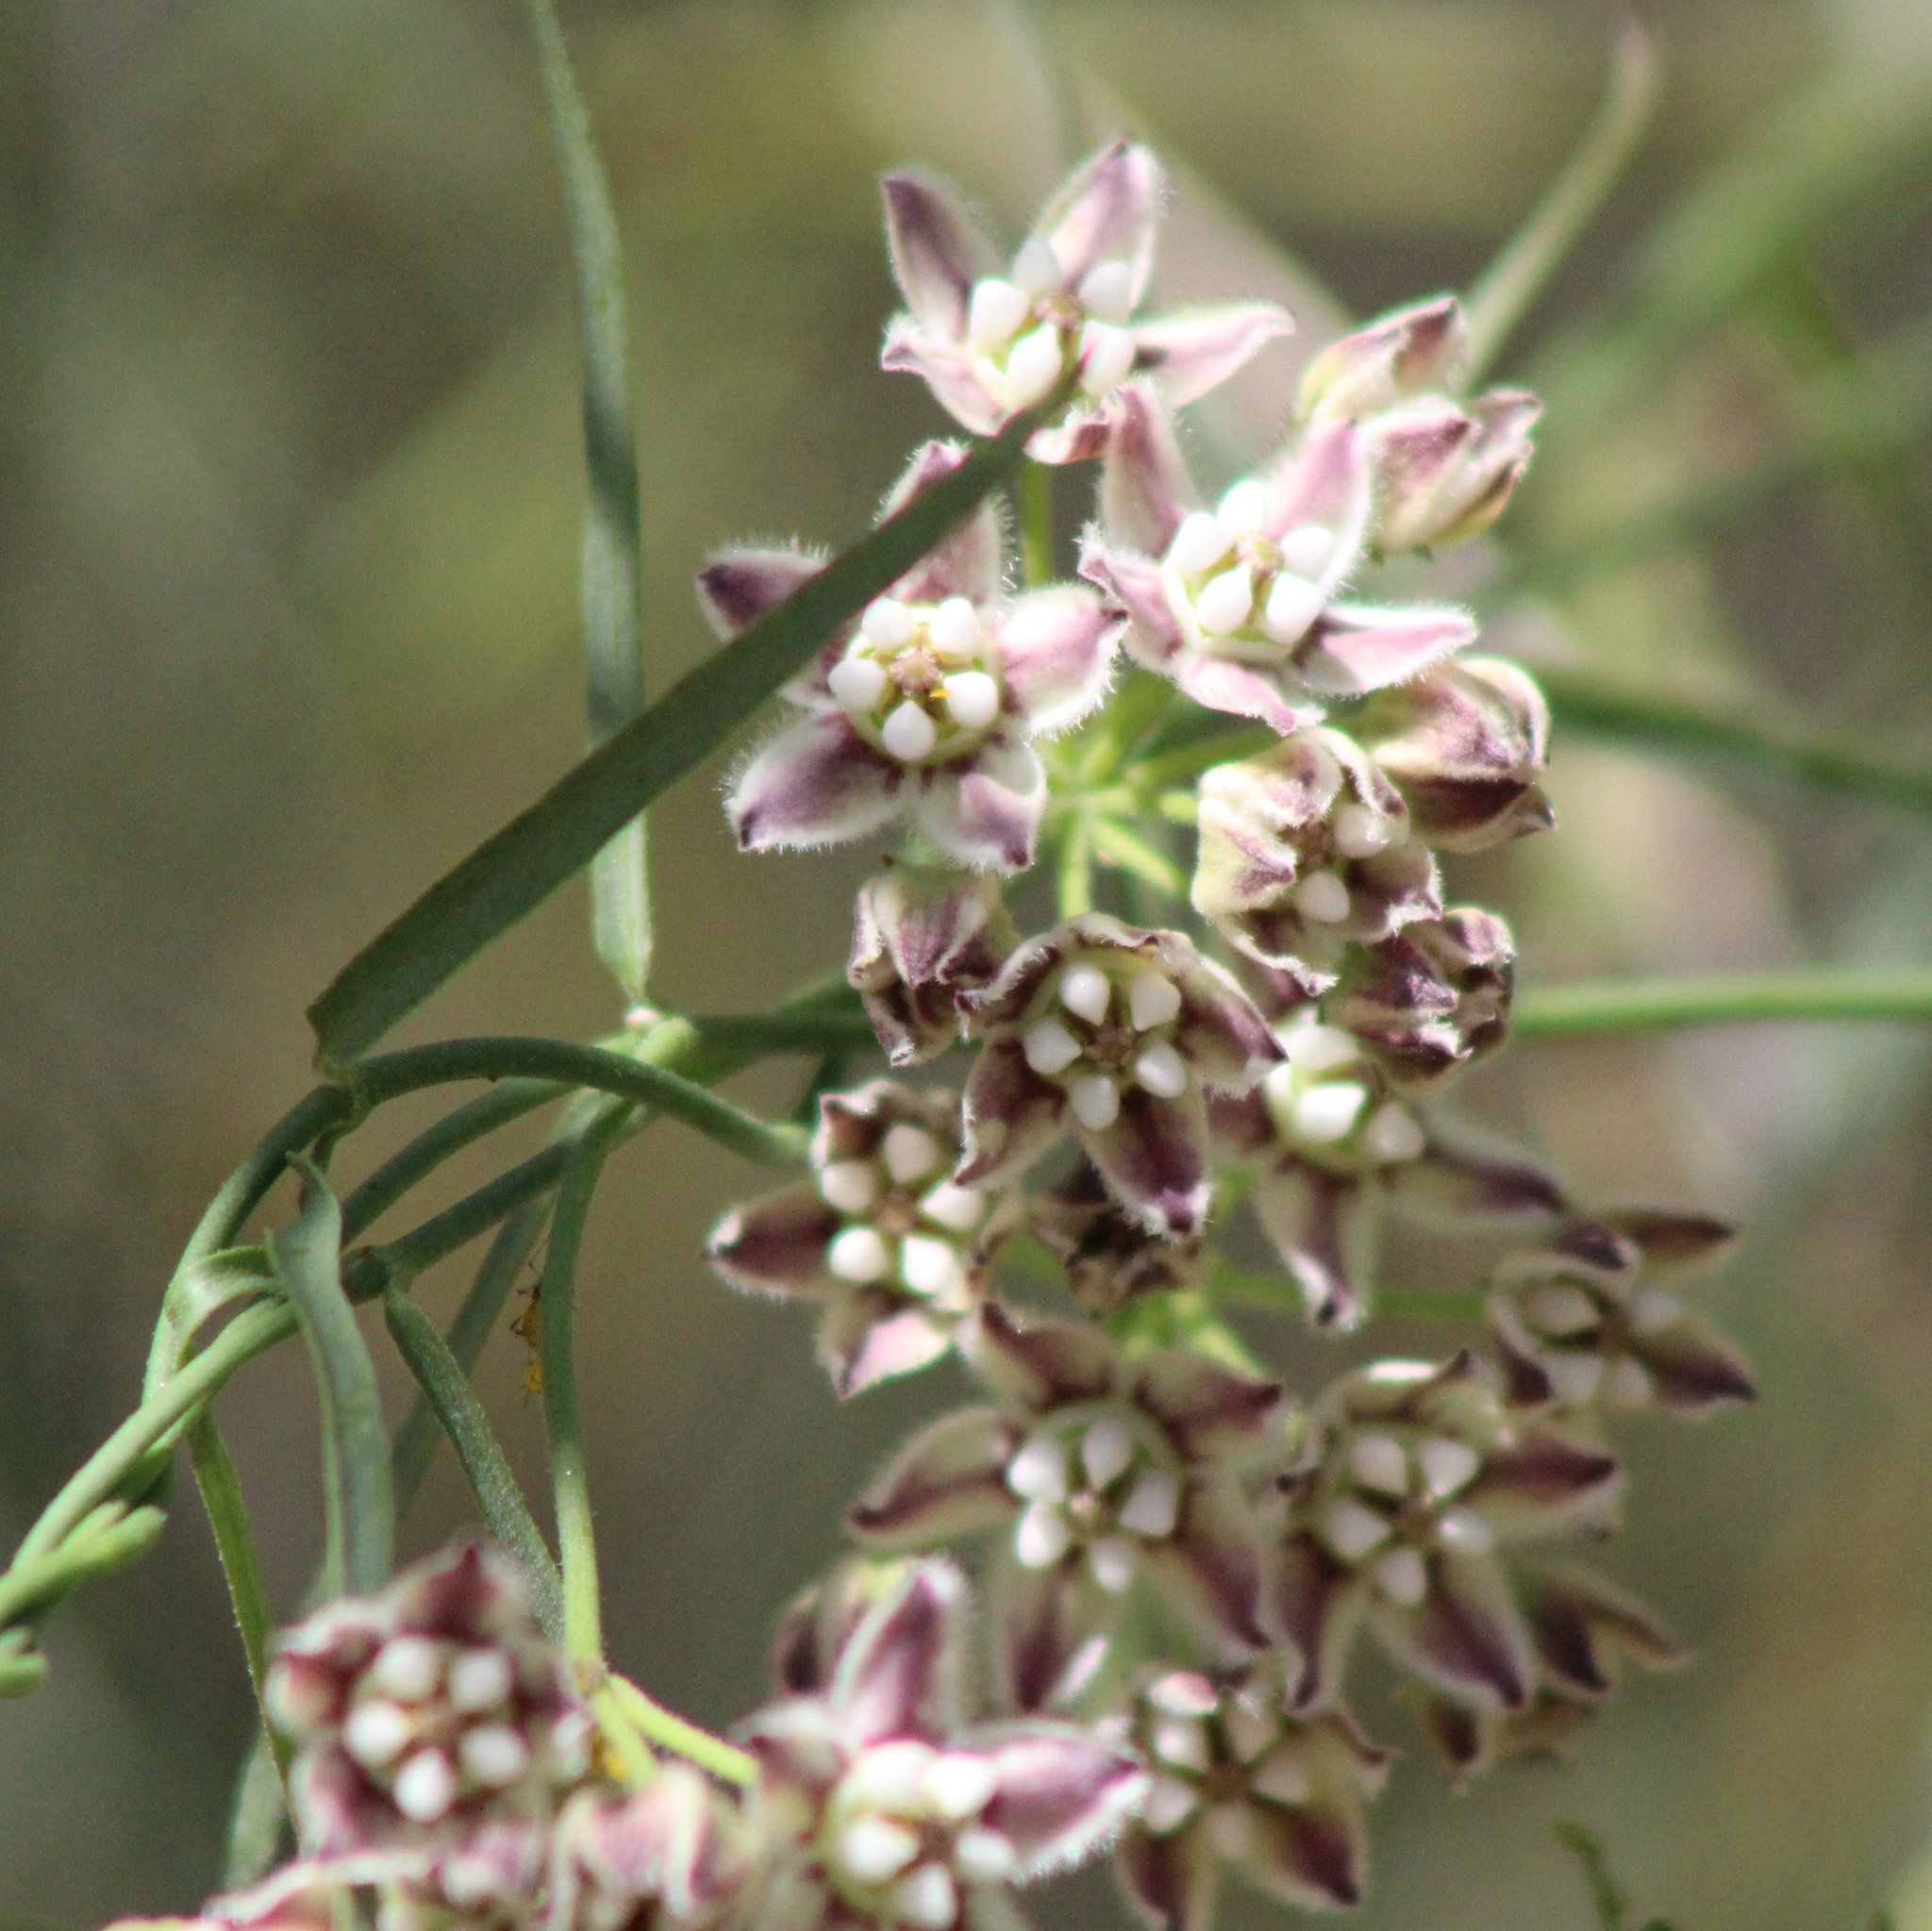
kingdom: Plantae
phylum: Tracheophyta
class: Magnoliopsida
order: Gentianales
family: Apocynaceae
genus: Funastrum
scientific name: Funastrum heterophyllum
